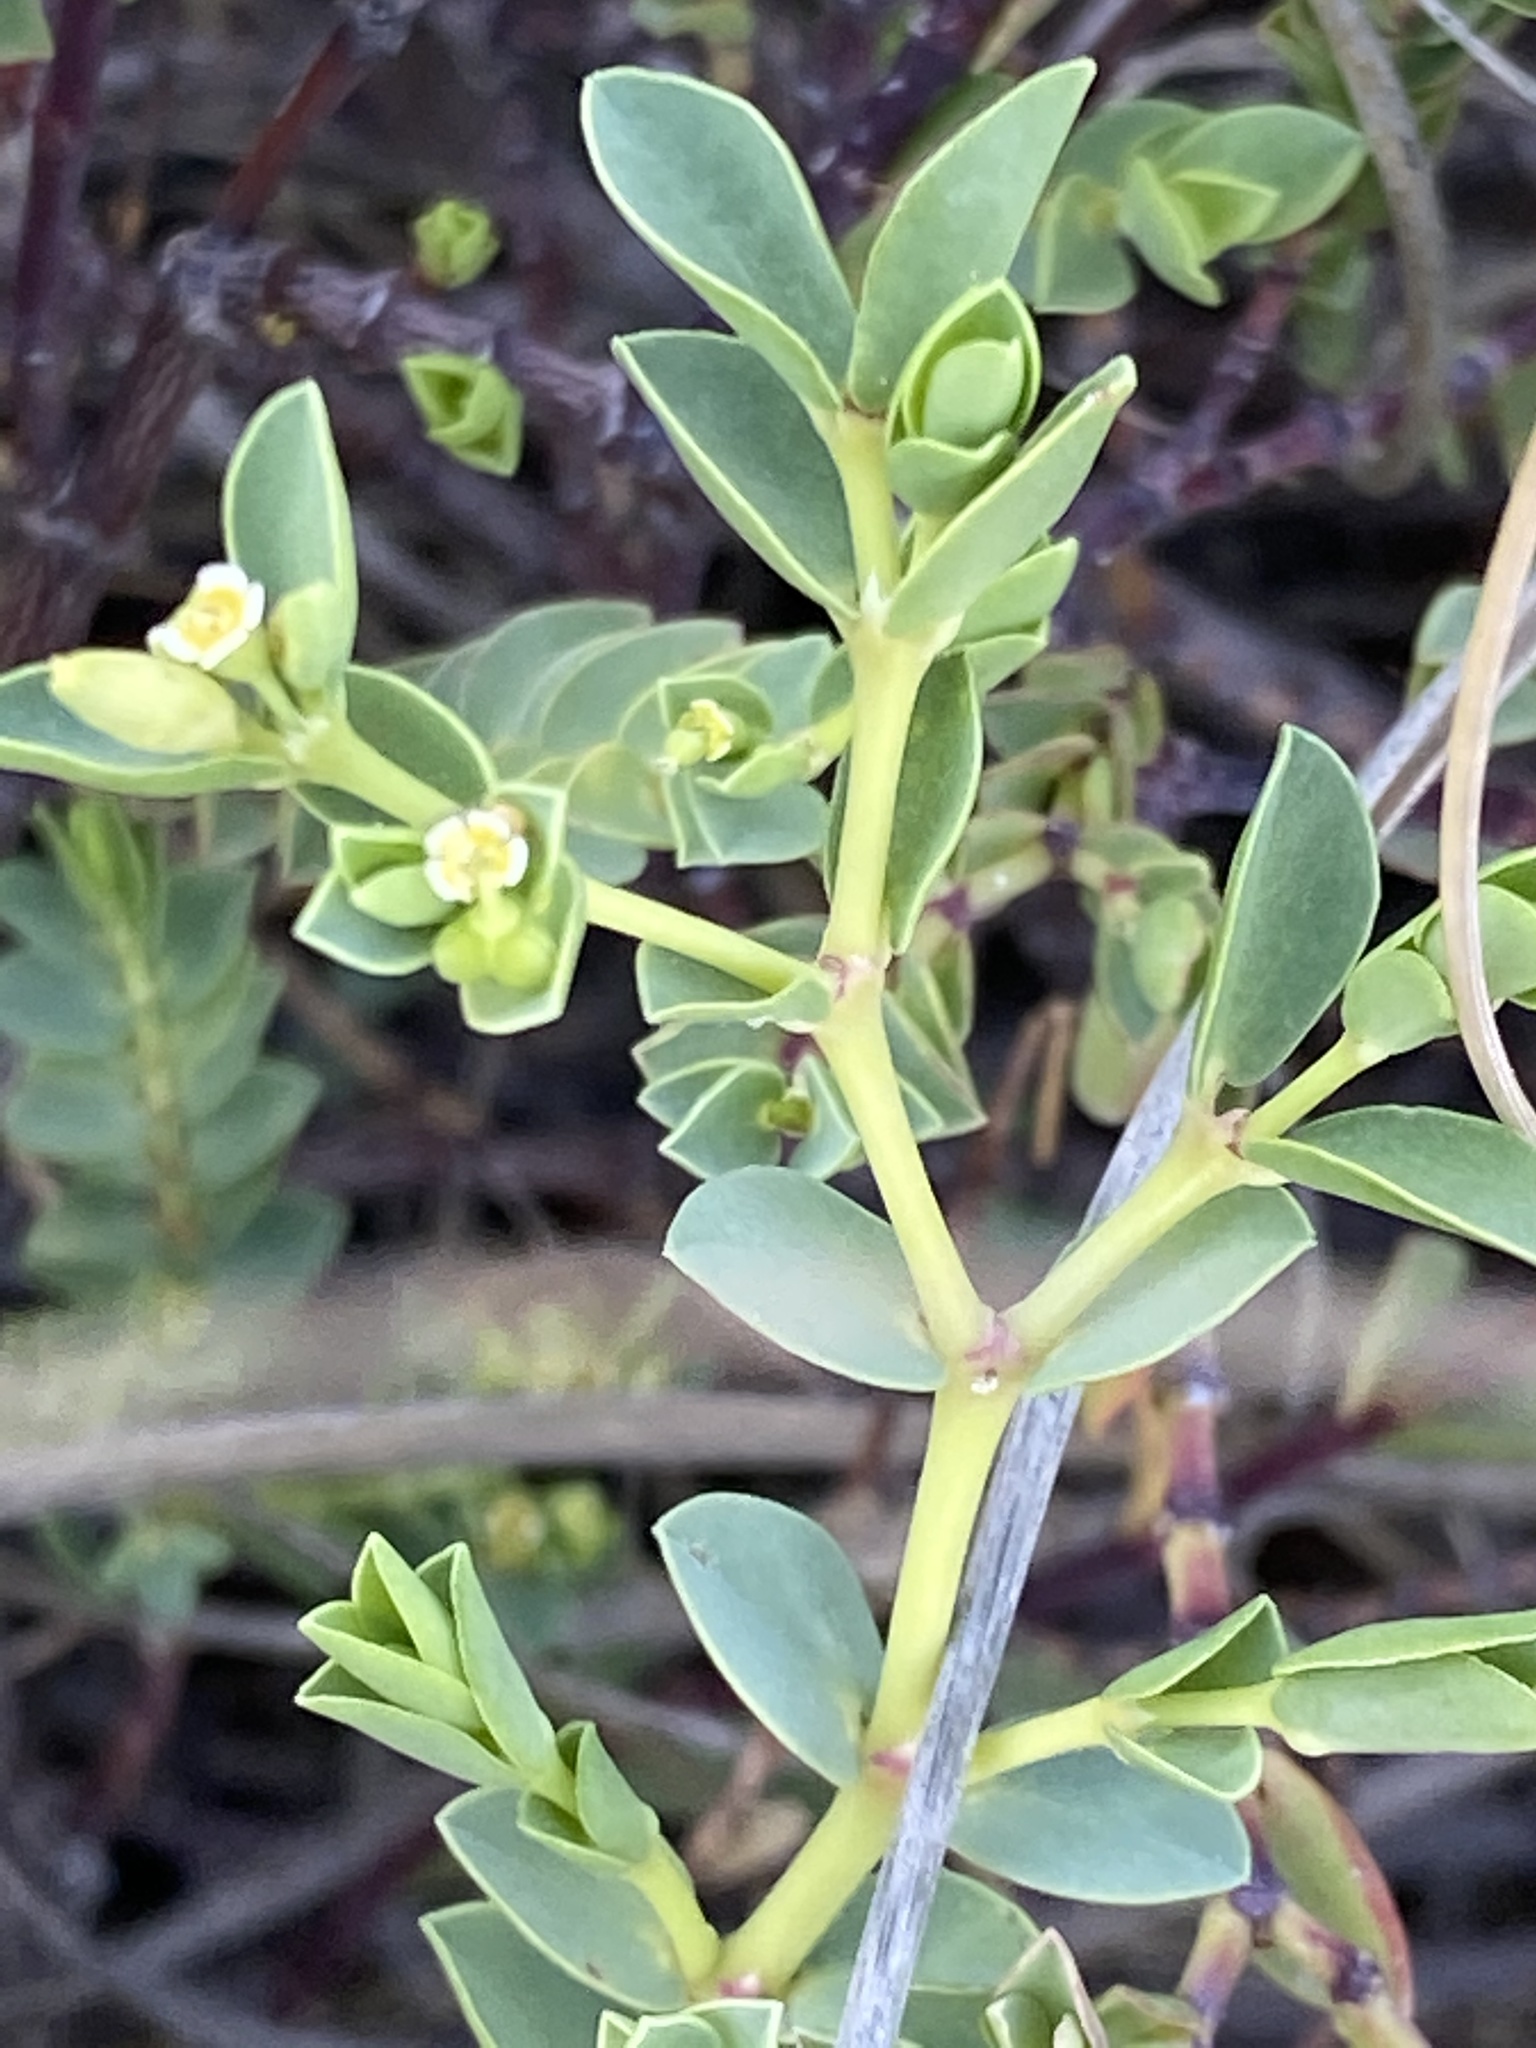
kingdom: Plantae
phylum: Tracheophyta
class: Magnoliopsida
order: Malpighiales
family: Euphorbiaceae
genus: Euphorbia
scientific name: Euphorbia mesembryanthemifolia
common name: Coastal beach sandmat
